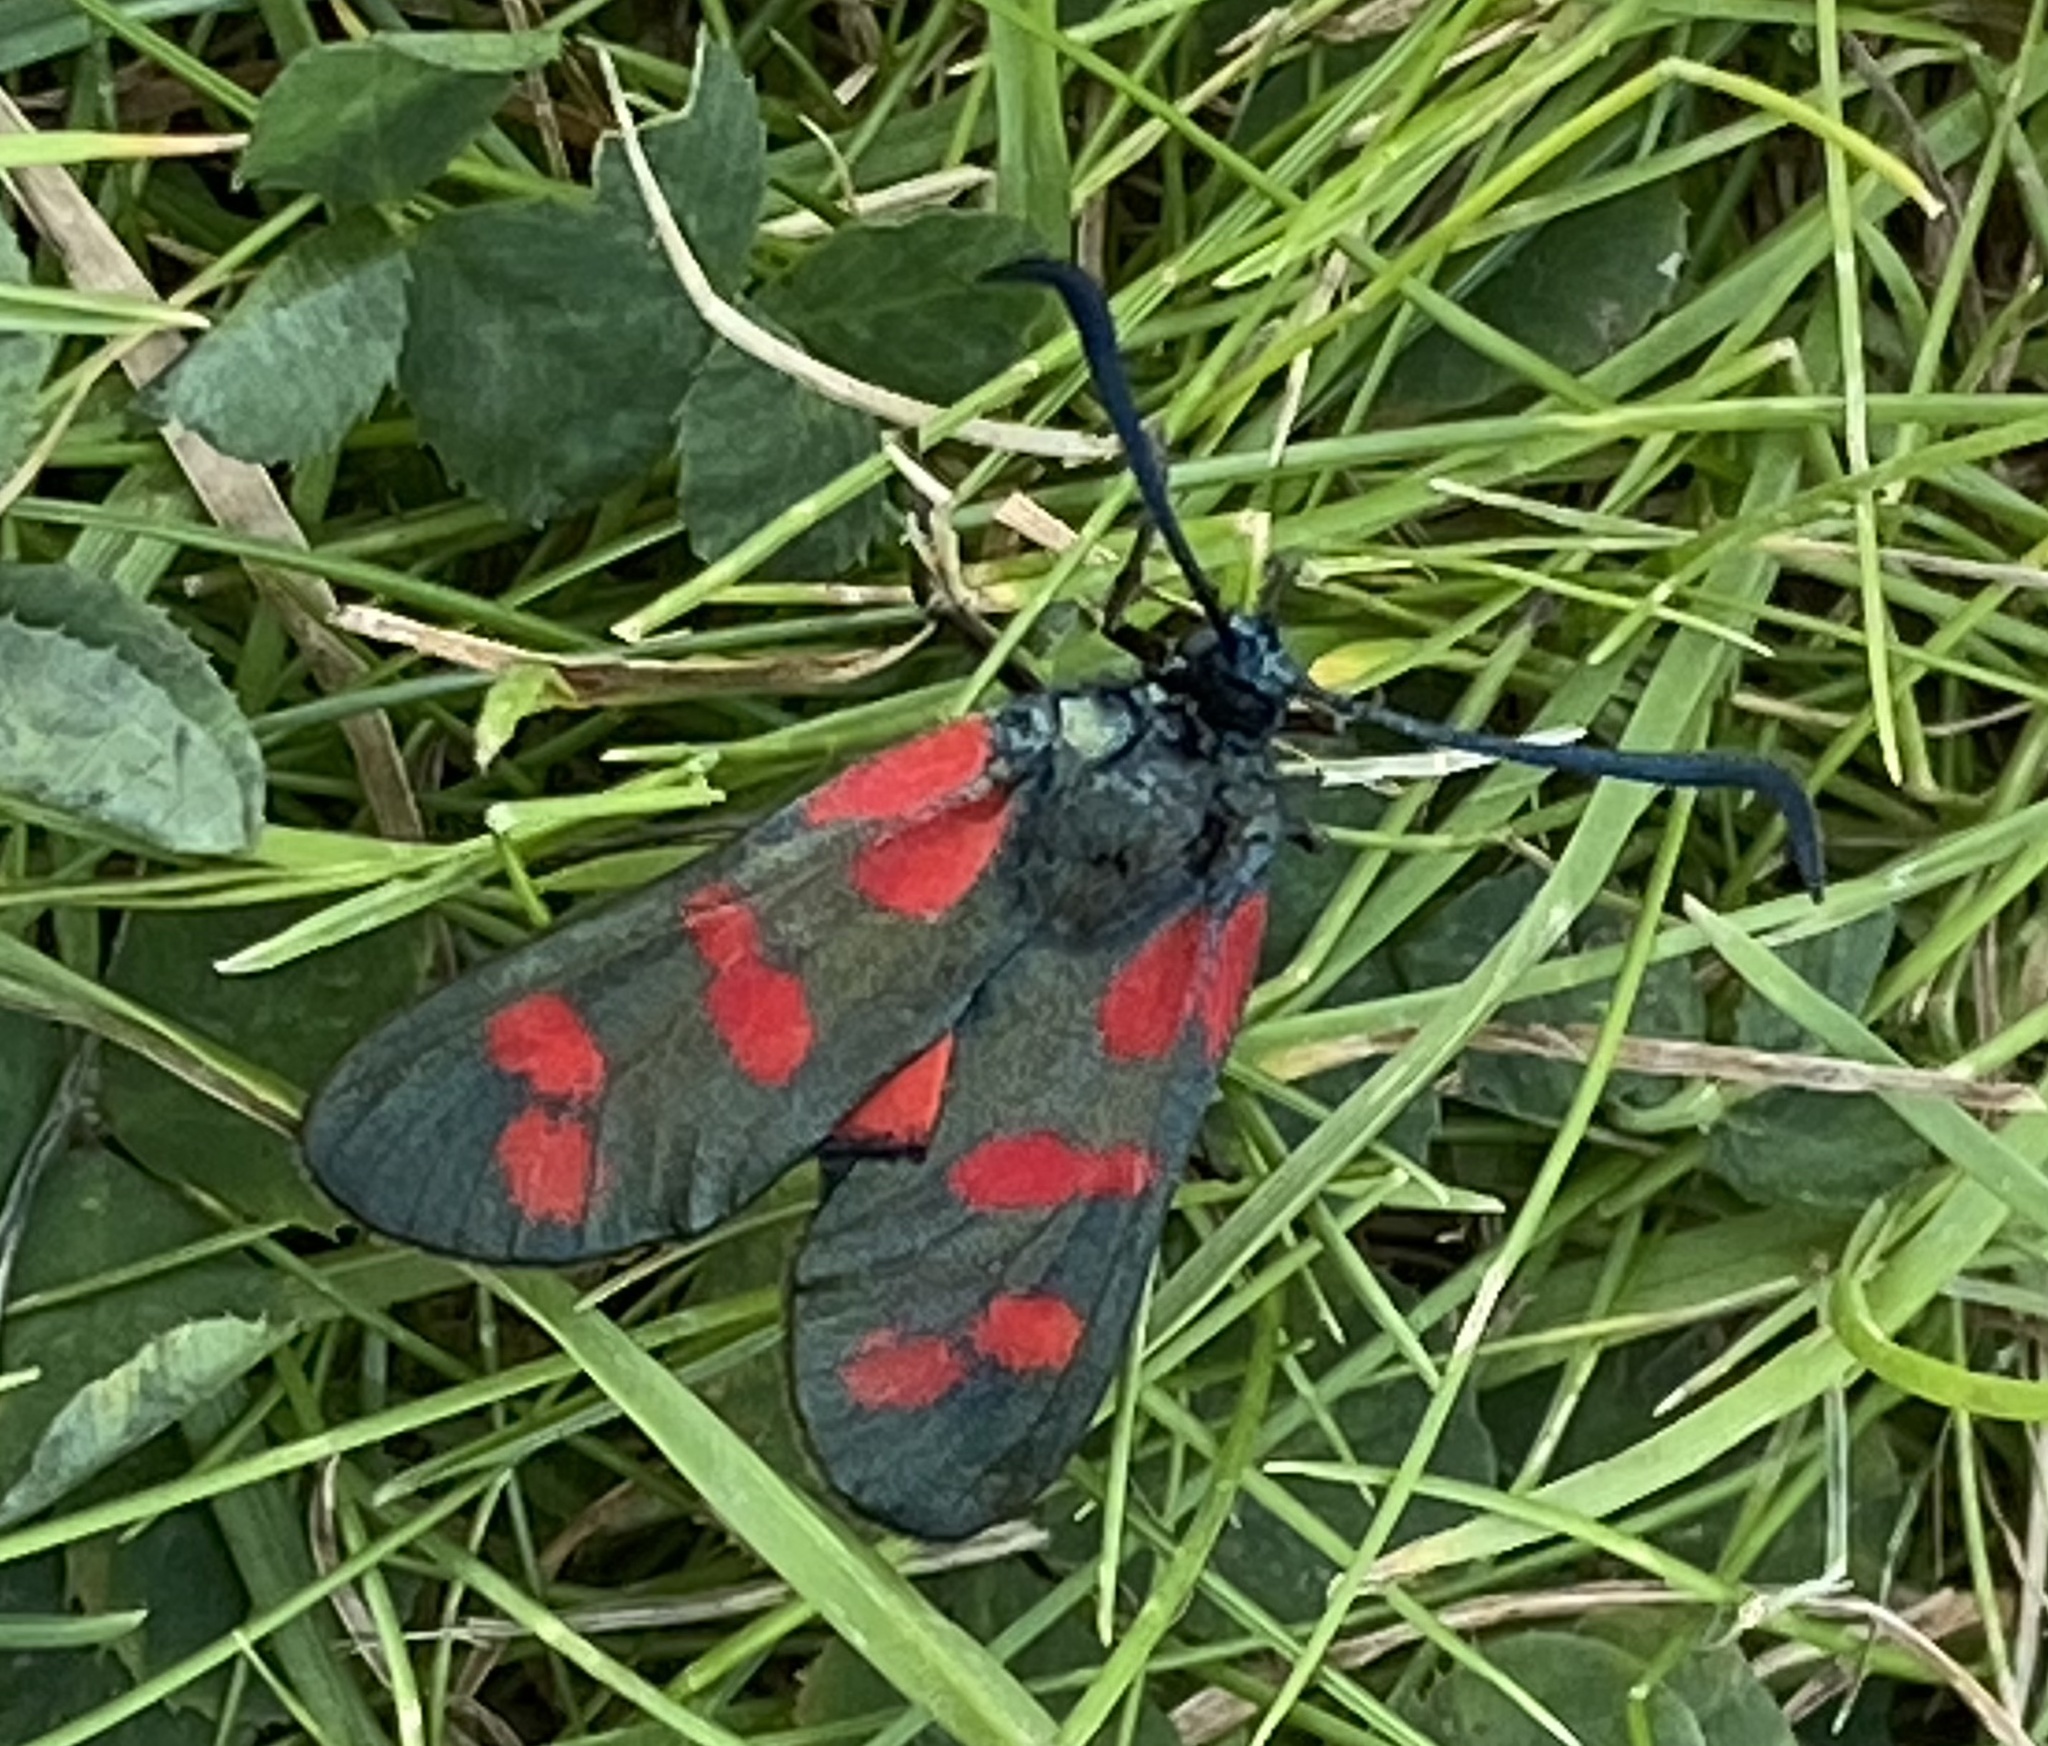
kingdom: Animalia
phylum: Arthropoda
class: Insecta
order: Lepidoptera
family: Zygaenidae
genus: Zygaena
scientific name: Zygaena filipendulae
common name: Six-spot burnet
